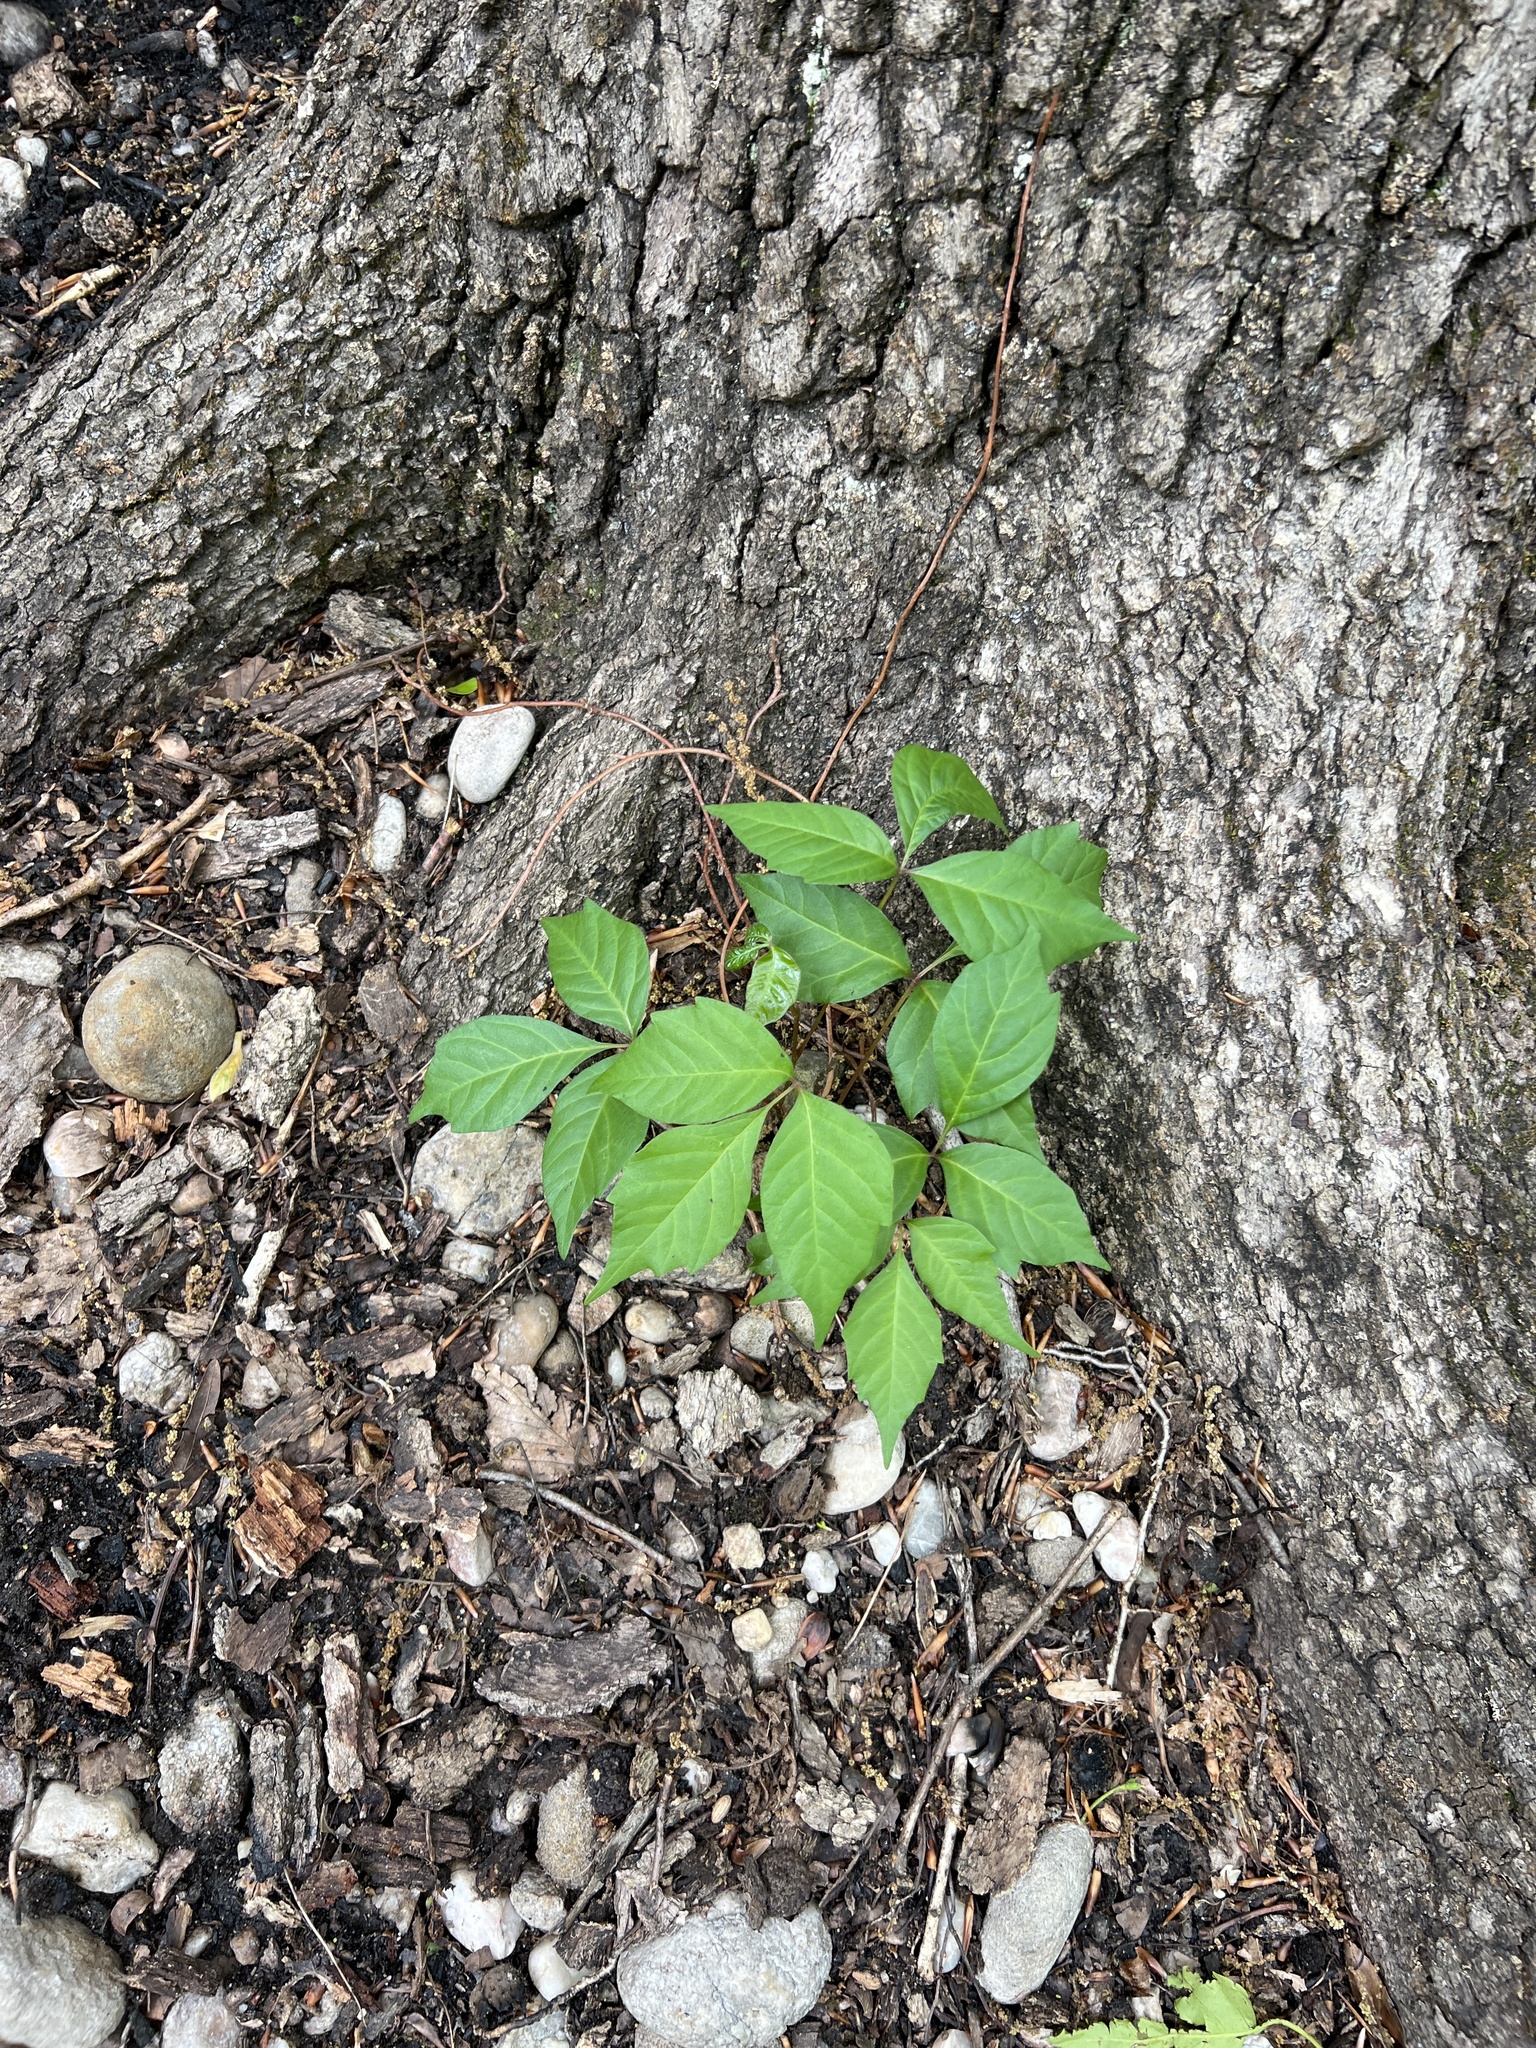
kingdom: Plantae
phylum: Tracheophyta
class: Magnoliopsida
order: Sapindales
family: Anacardiaceae
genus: Toxicodendron
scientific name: Toxicodendron radicans
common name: Poison ivy
